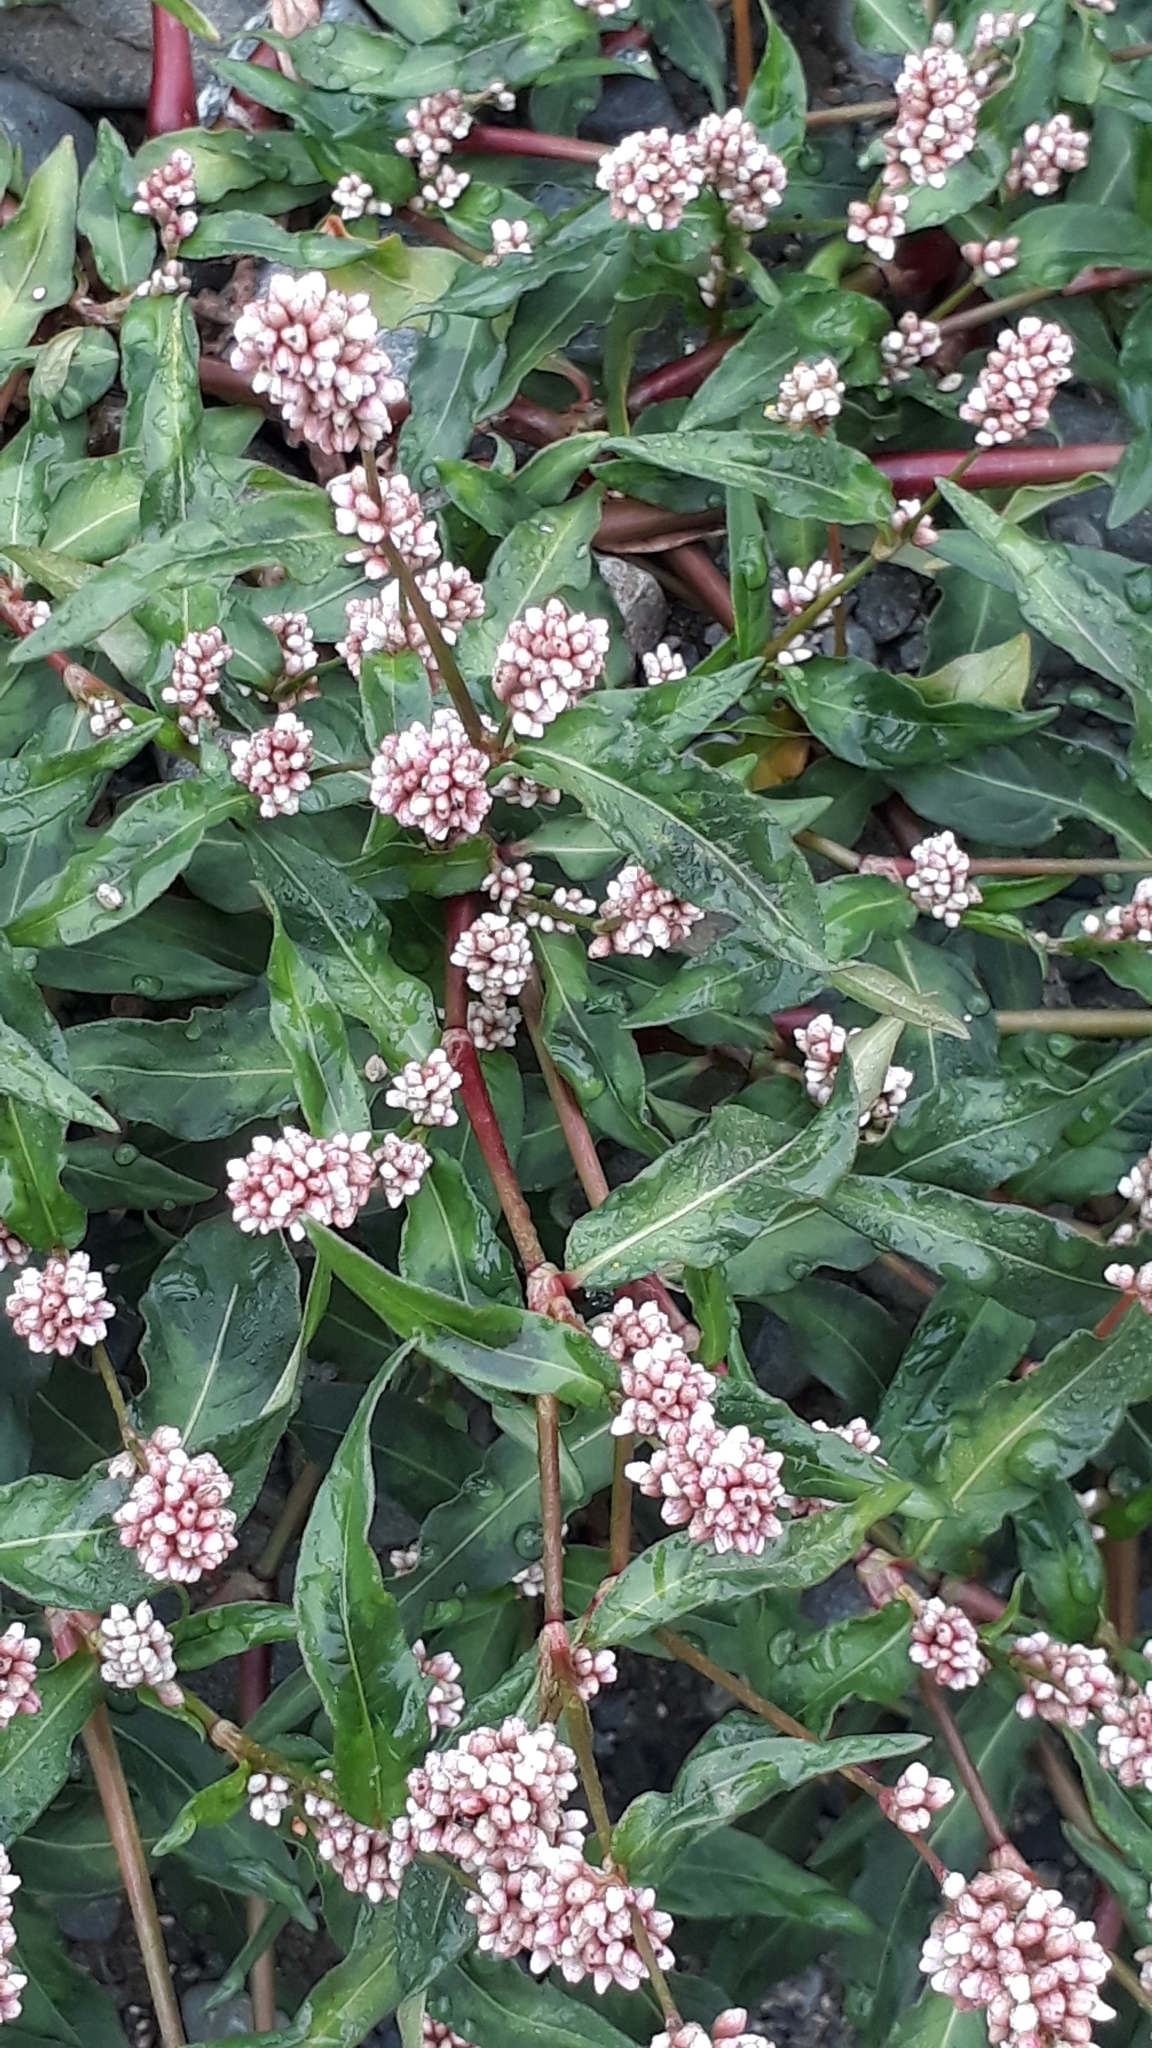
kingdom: Plantae
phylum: Tracheophyta
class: Magnoliopsida
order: Caryophyllales
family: Polygonaceae
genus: Persicaria
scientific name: Persicaria maculosa
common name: Redshank
